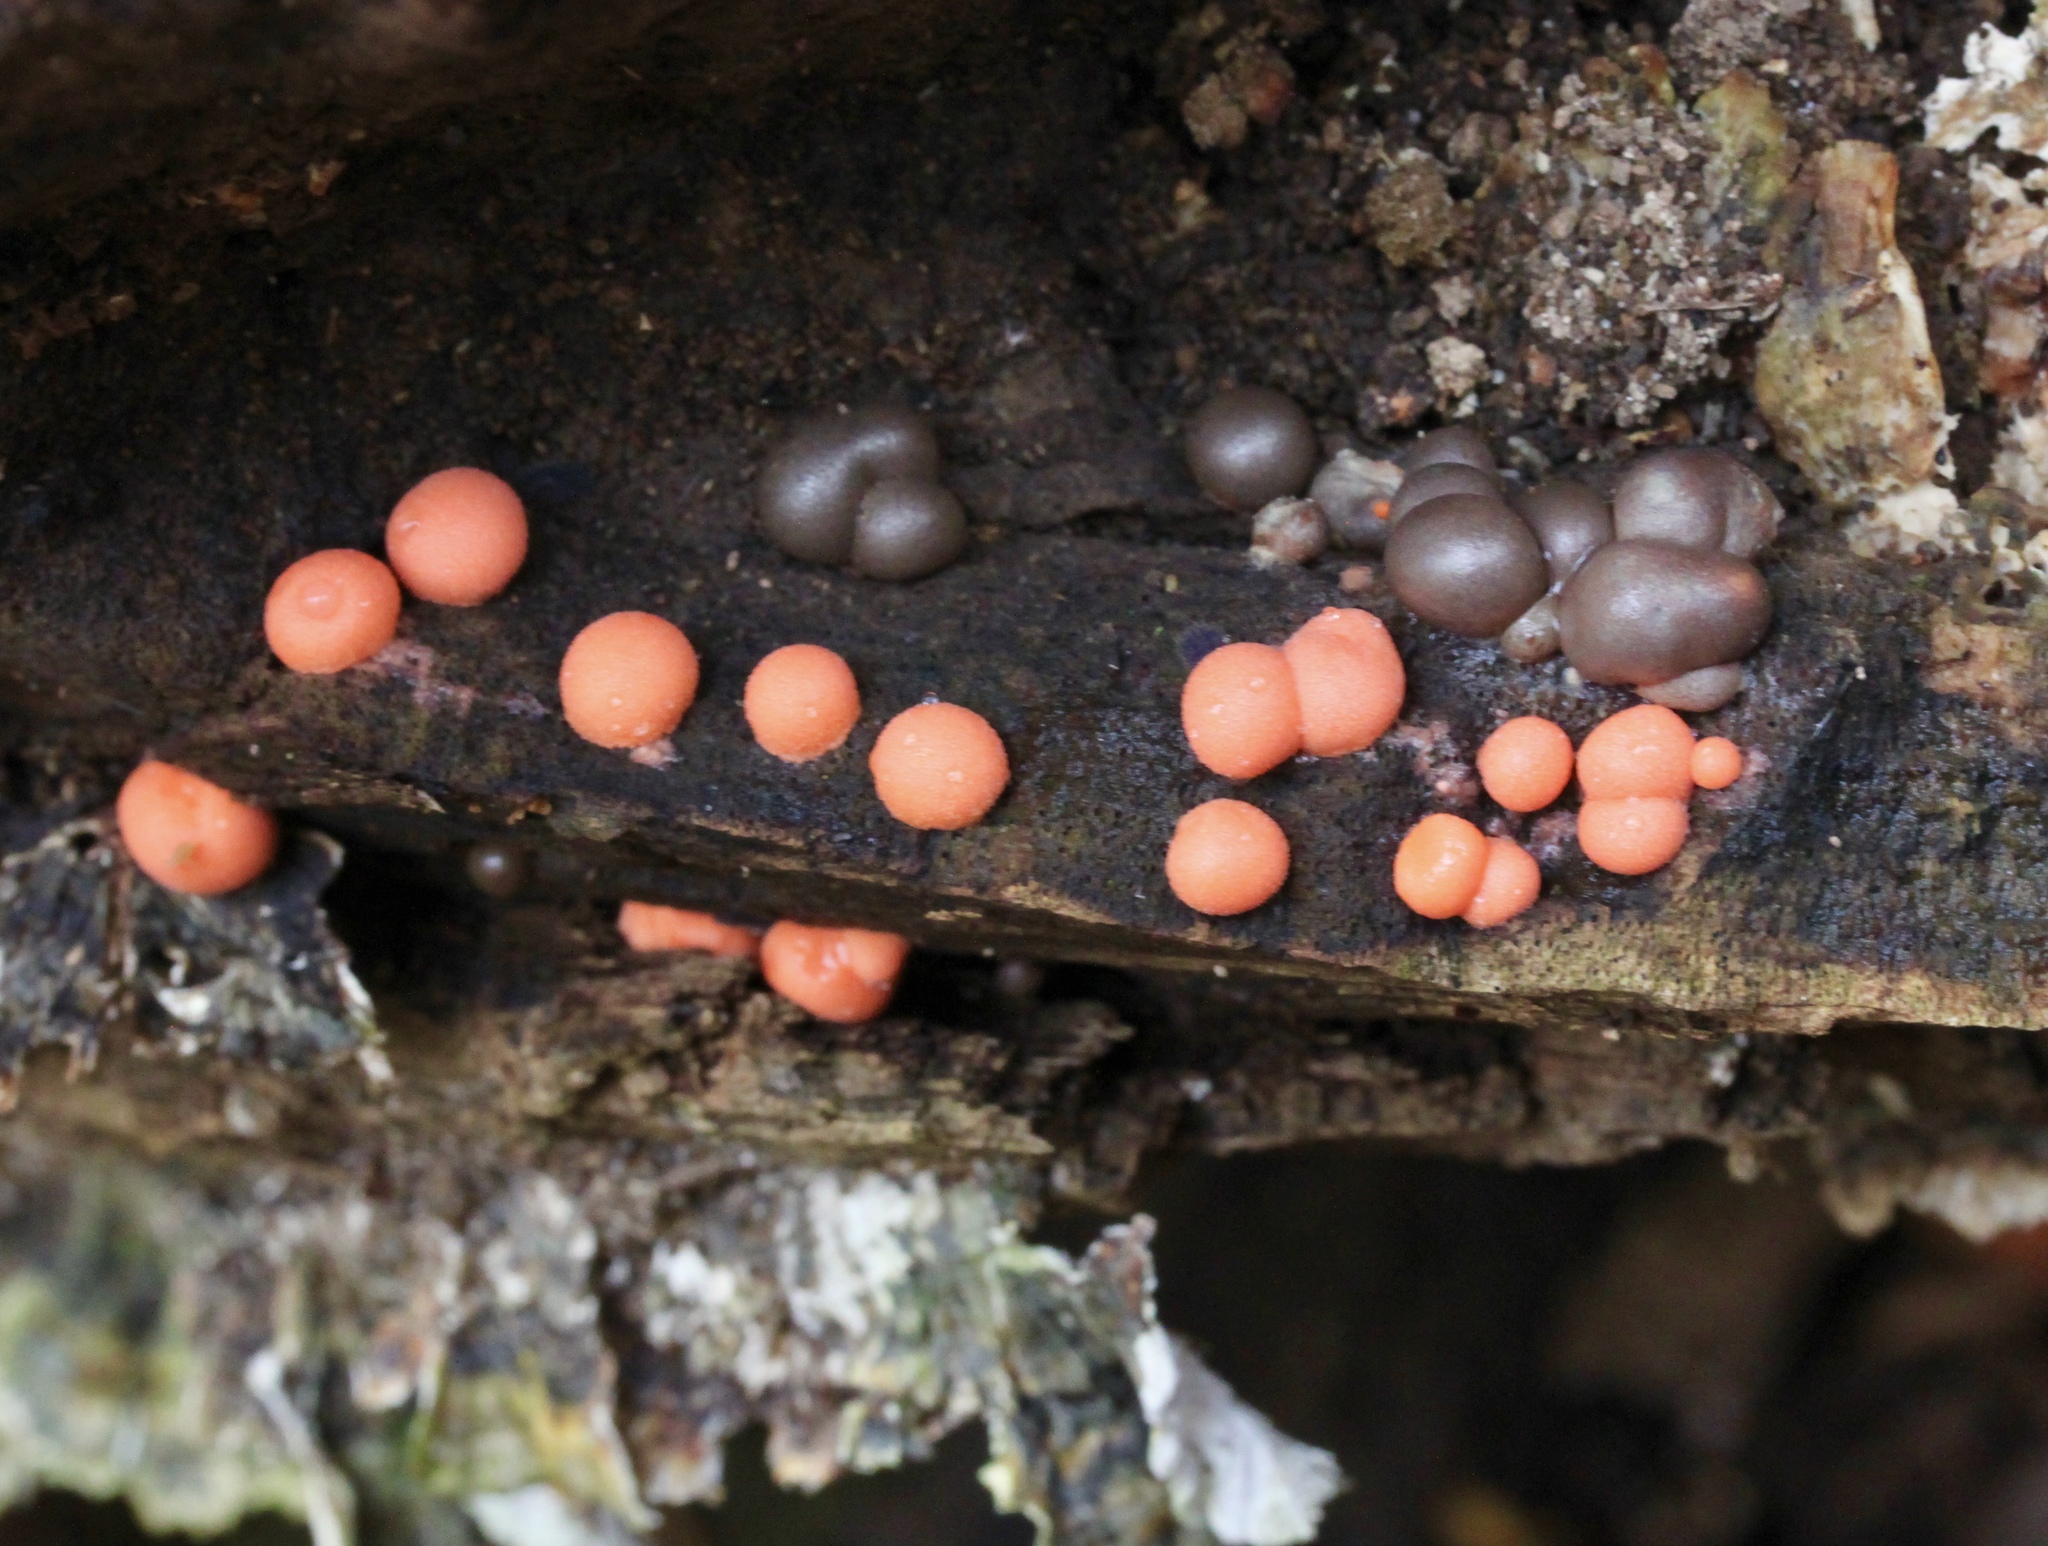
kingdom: Protozoa
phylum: Mycetozoa
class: Myxomycetes
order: Cribrariales
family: Tubiferaceae
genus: Lycogala
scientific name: Lycogala epidendrum
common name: Wolf's milk
